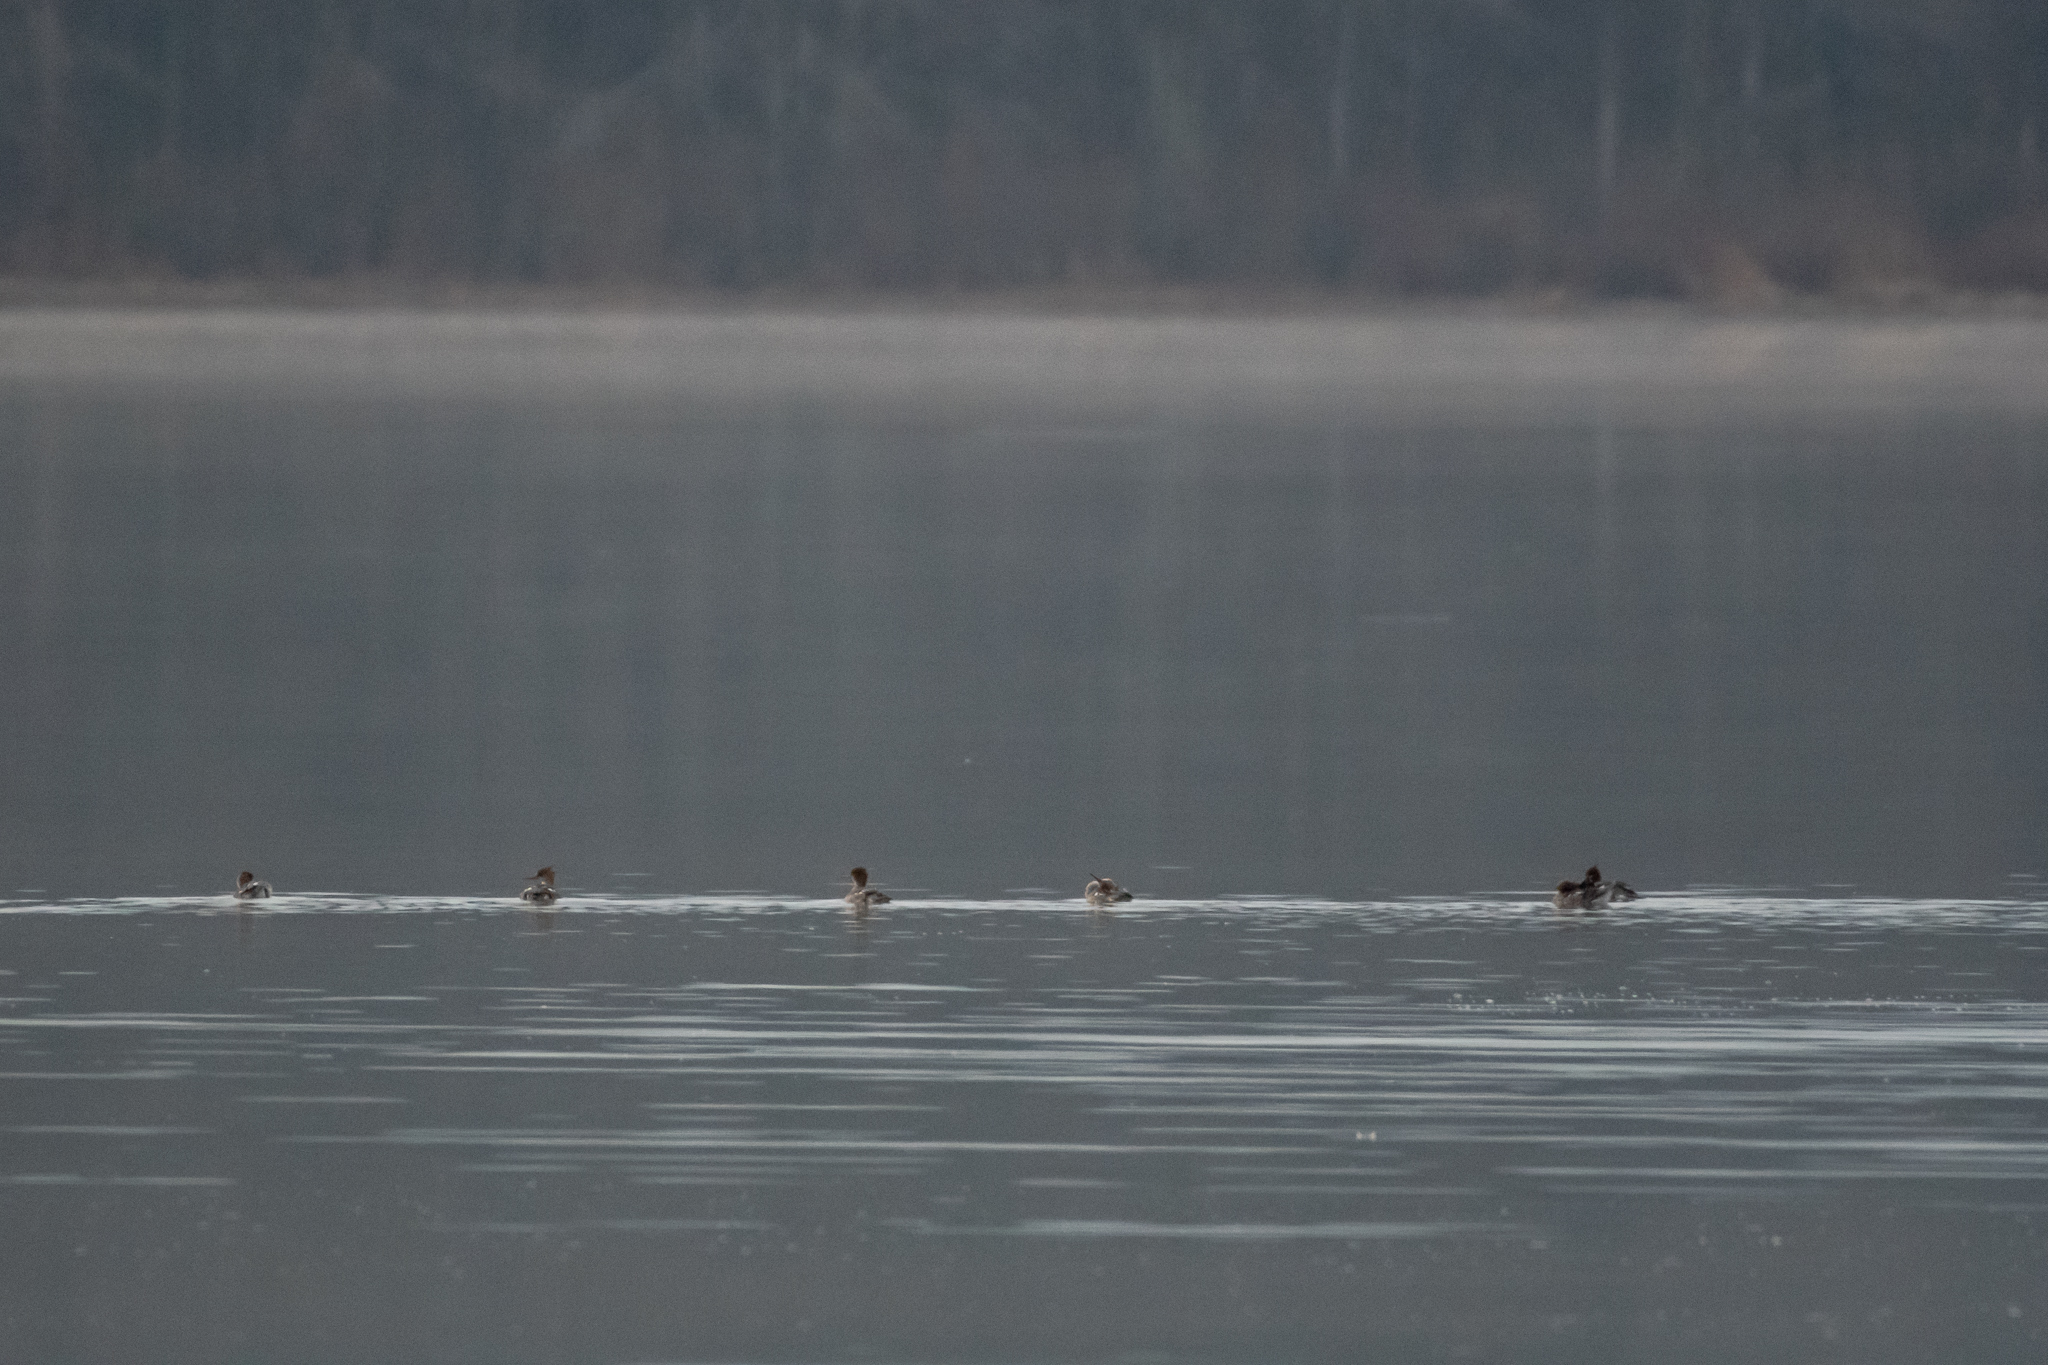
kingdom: Animalia
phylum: Chordata
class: Aves
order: Anseriformes
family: Anatidae
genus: Mergus
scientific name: Mergus serrator
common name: Red-breasted merganser
